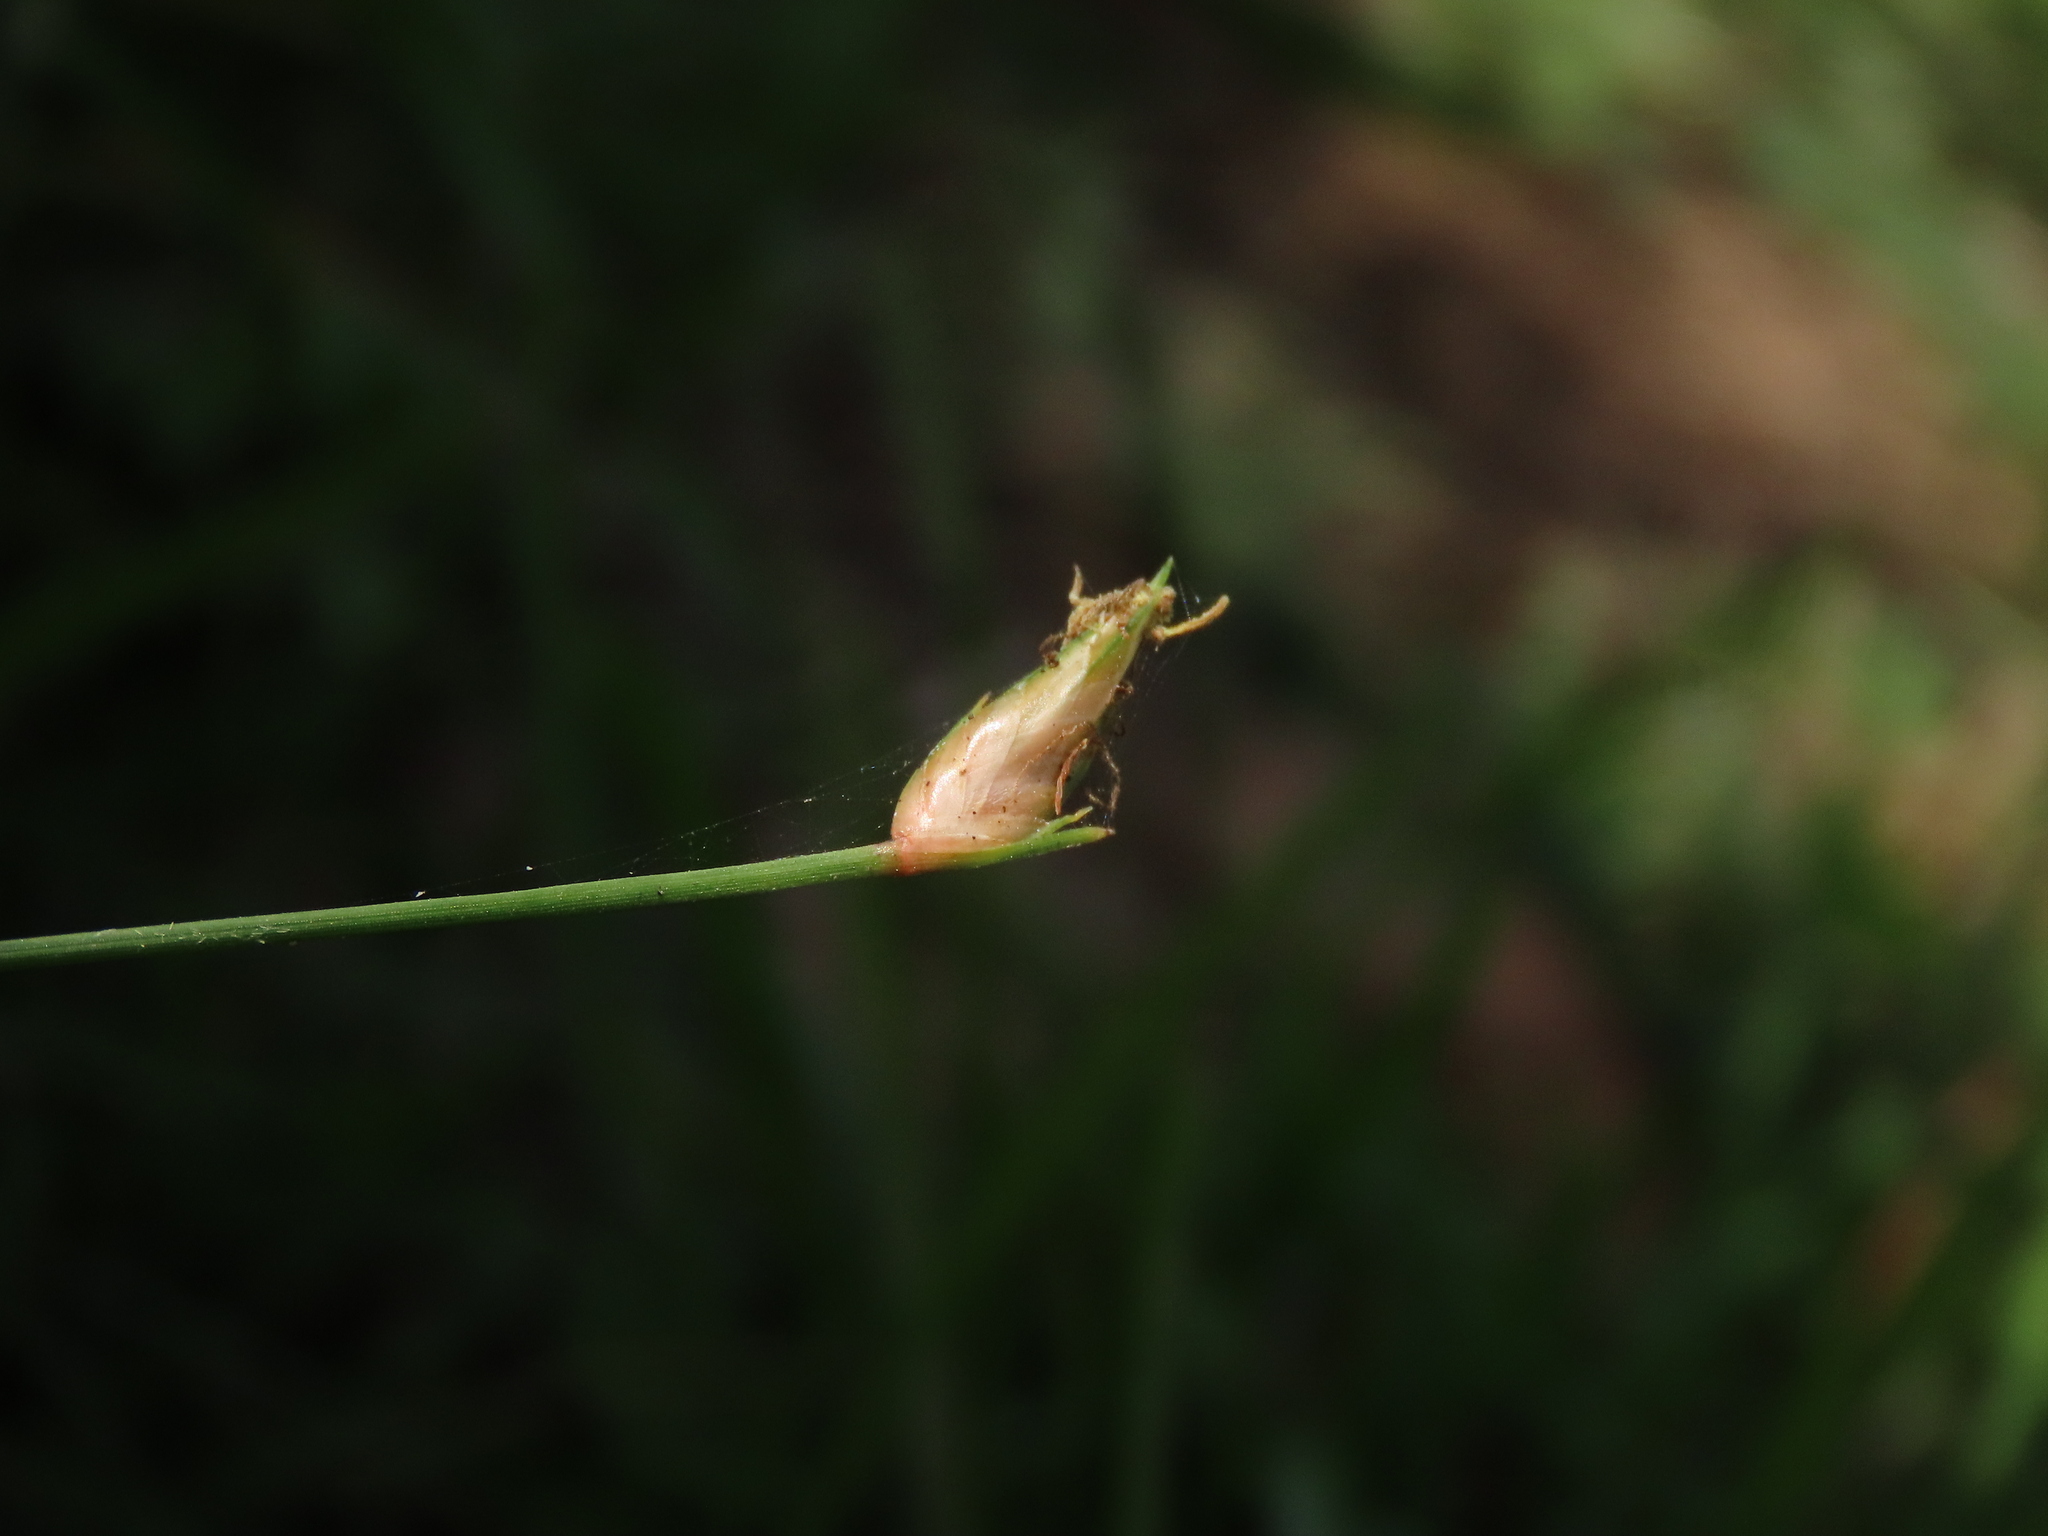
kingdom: Plantae
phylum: Tracheophyta
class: Liliopsida
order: Poales
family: Cyperaceae
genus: Abildgaardia
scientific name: Abildgaardia ovata
